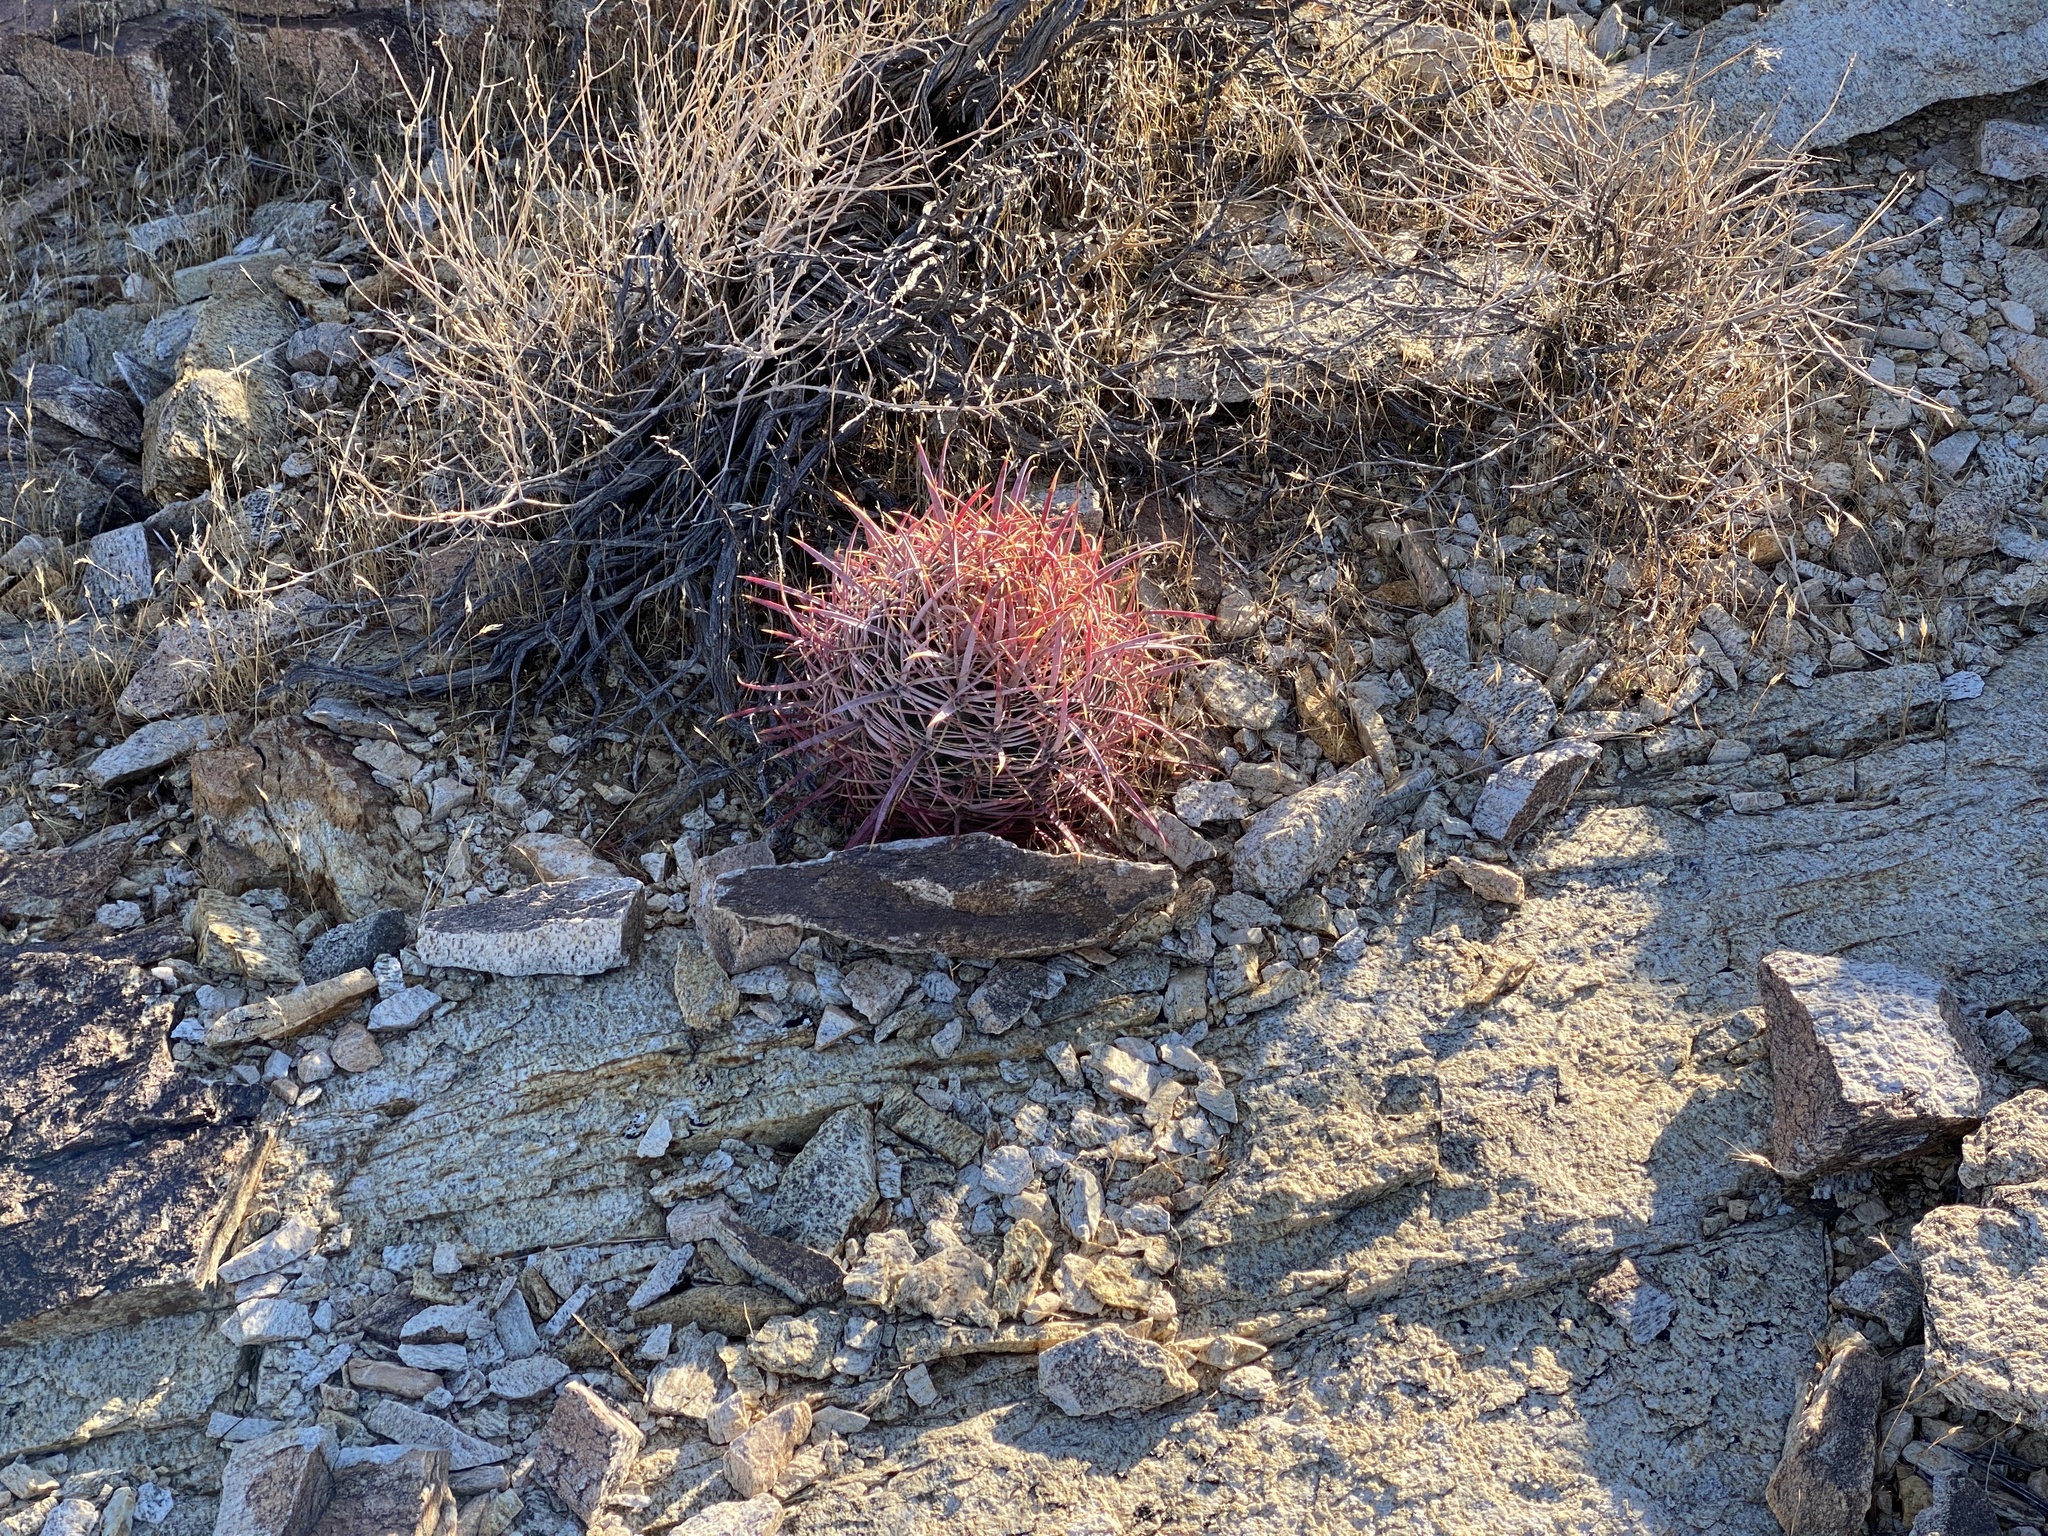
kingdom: Plantae
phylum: Tracheophyta
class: Magnoliopsida
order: Caryophyllales
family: Cactaceae
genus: Ferocactus
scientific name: Ferocactus cylindraceus
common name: California barrel cactus
